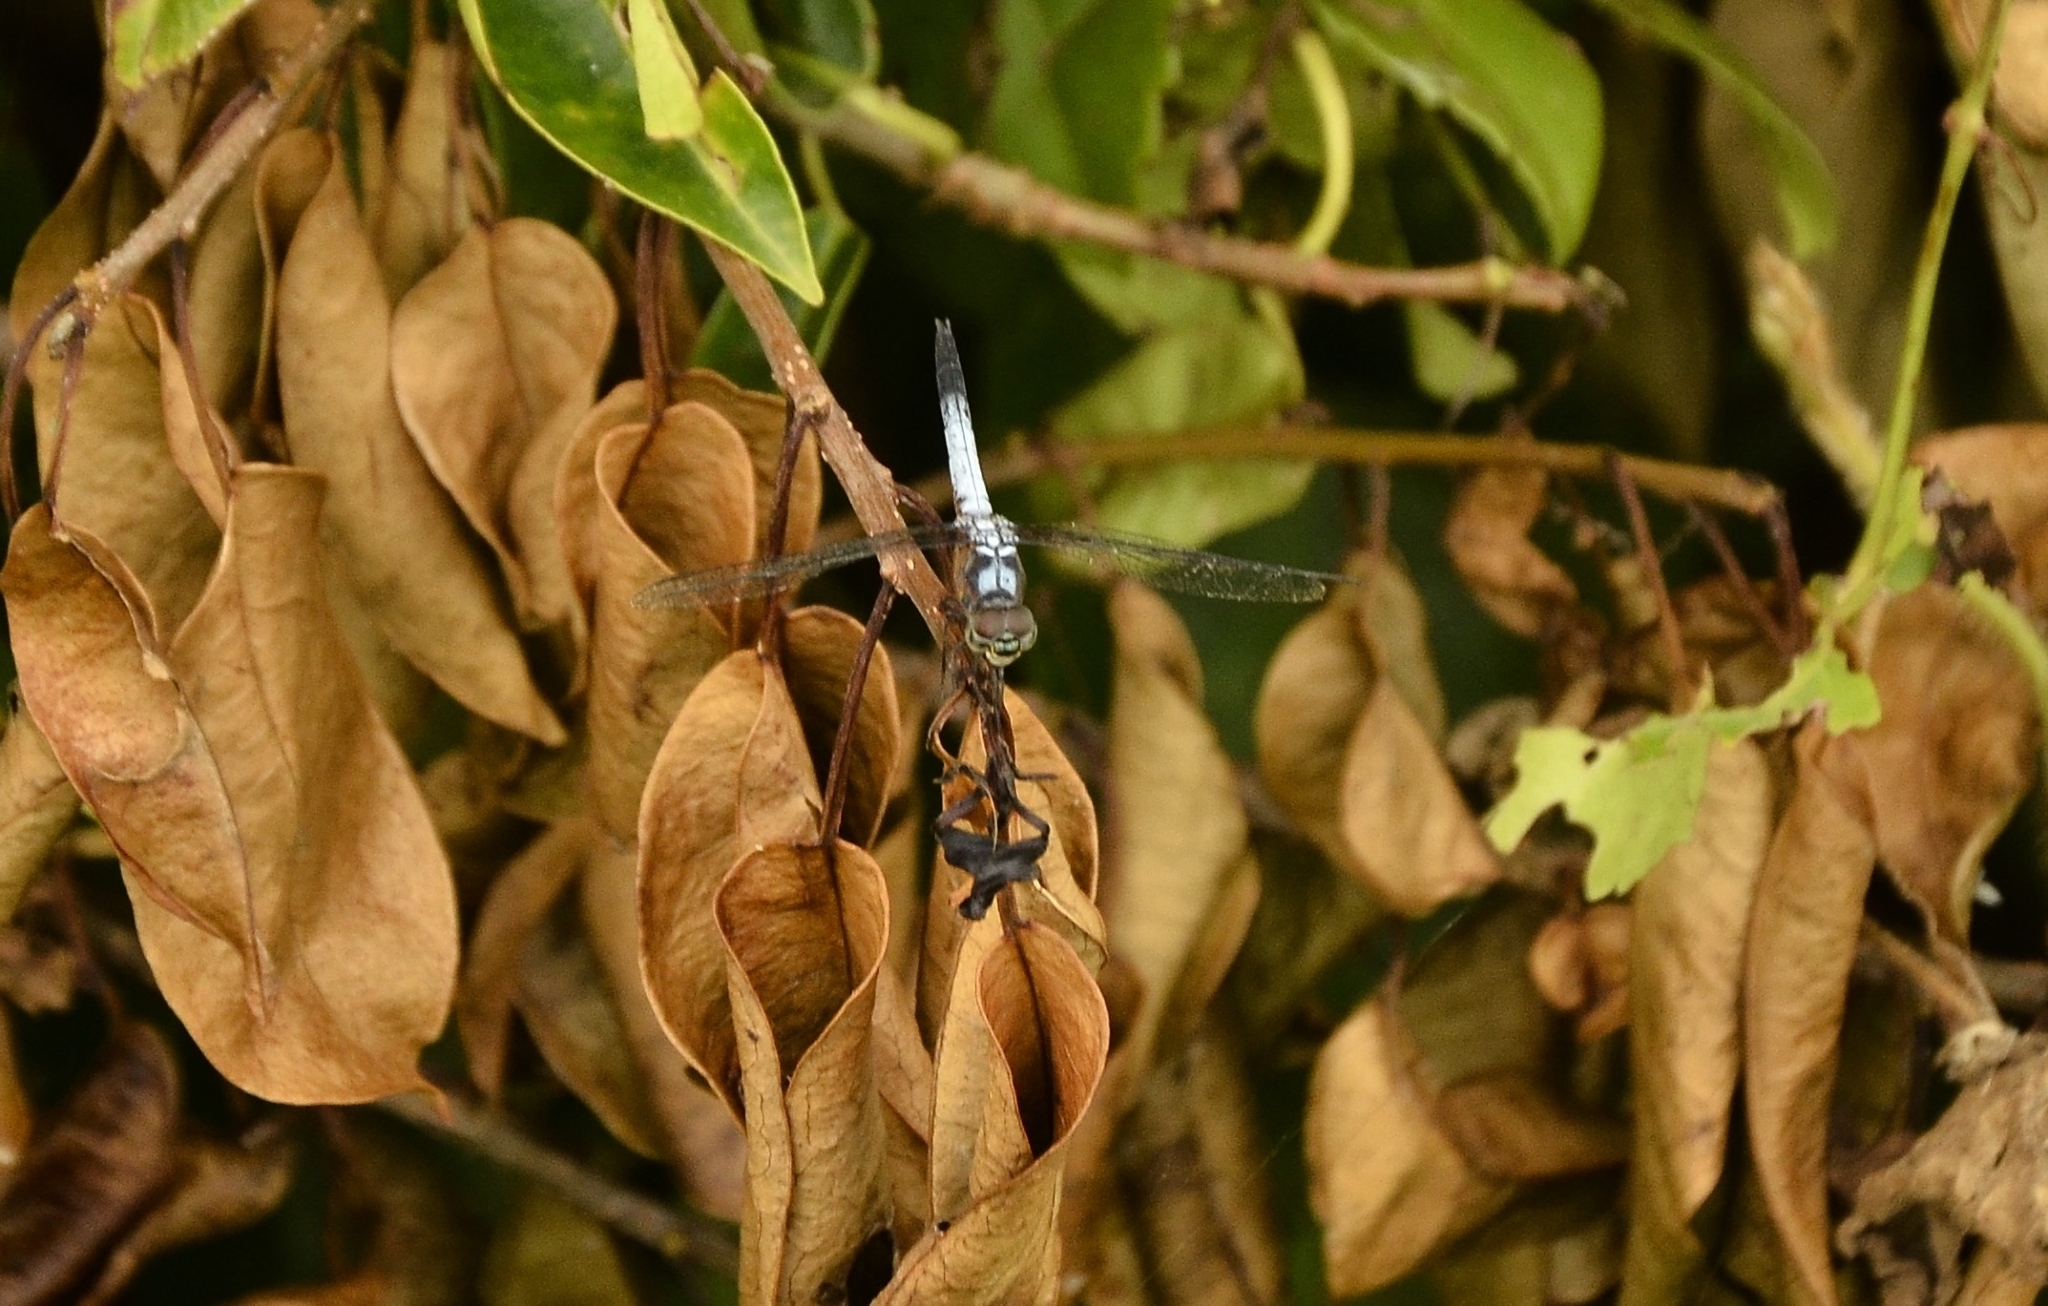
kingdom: Animalia
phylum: Arthropoda
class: Insecta
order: Odonata
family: Libellulidae
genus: Brachydiplax
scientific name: Brachydiplax chalybea
